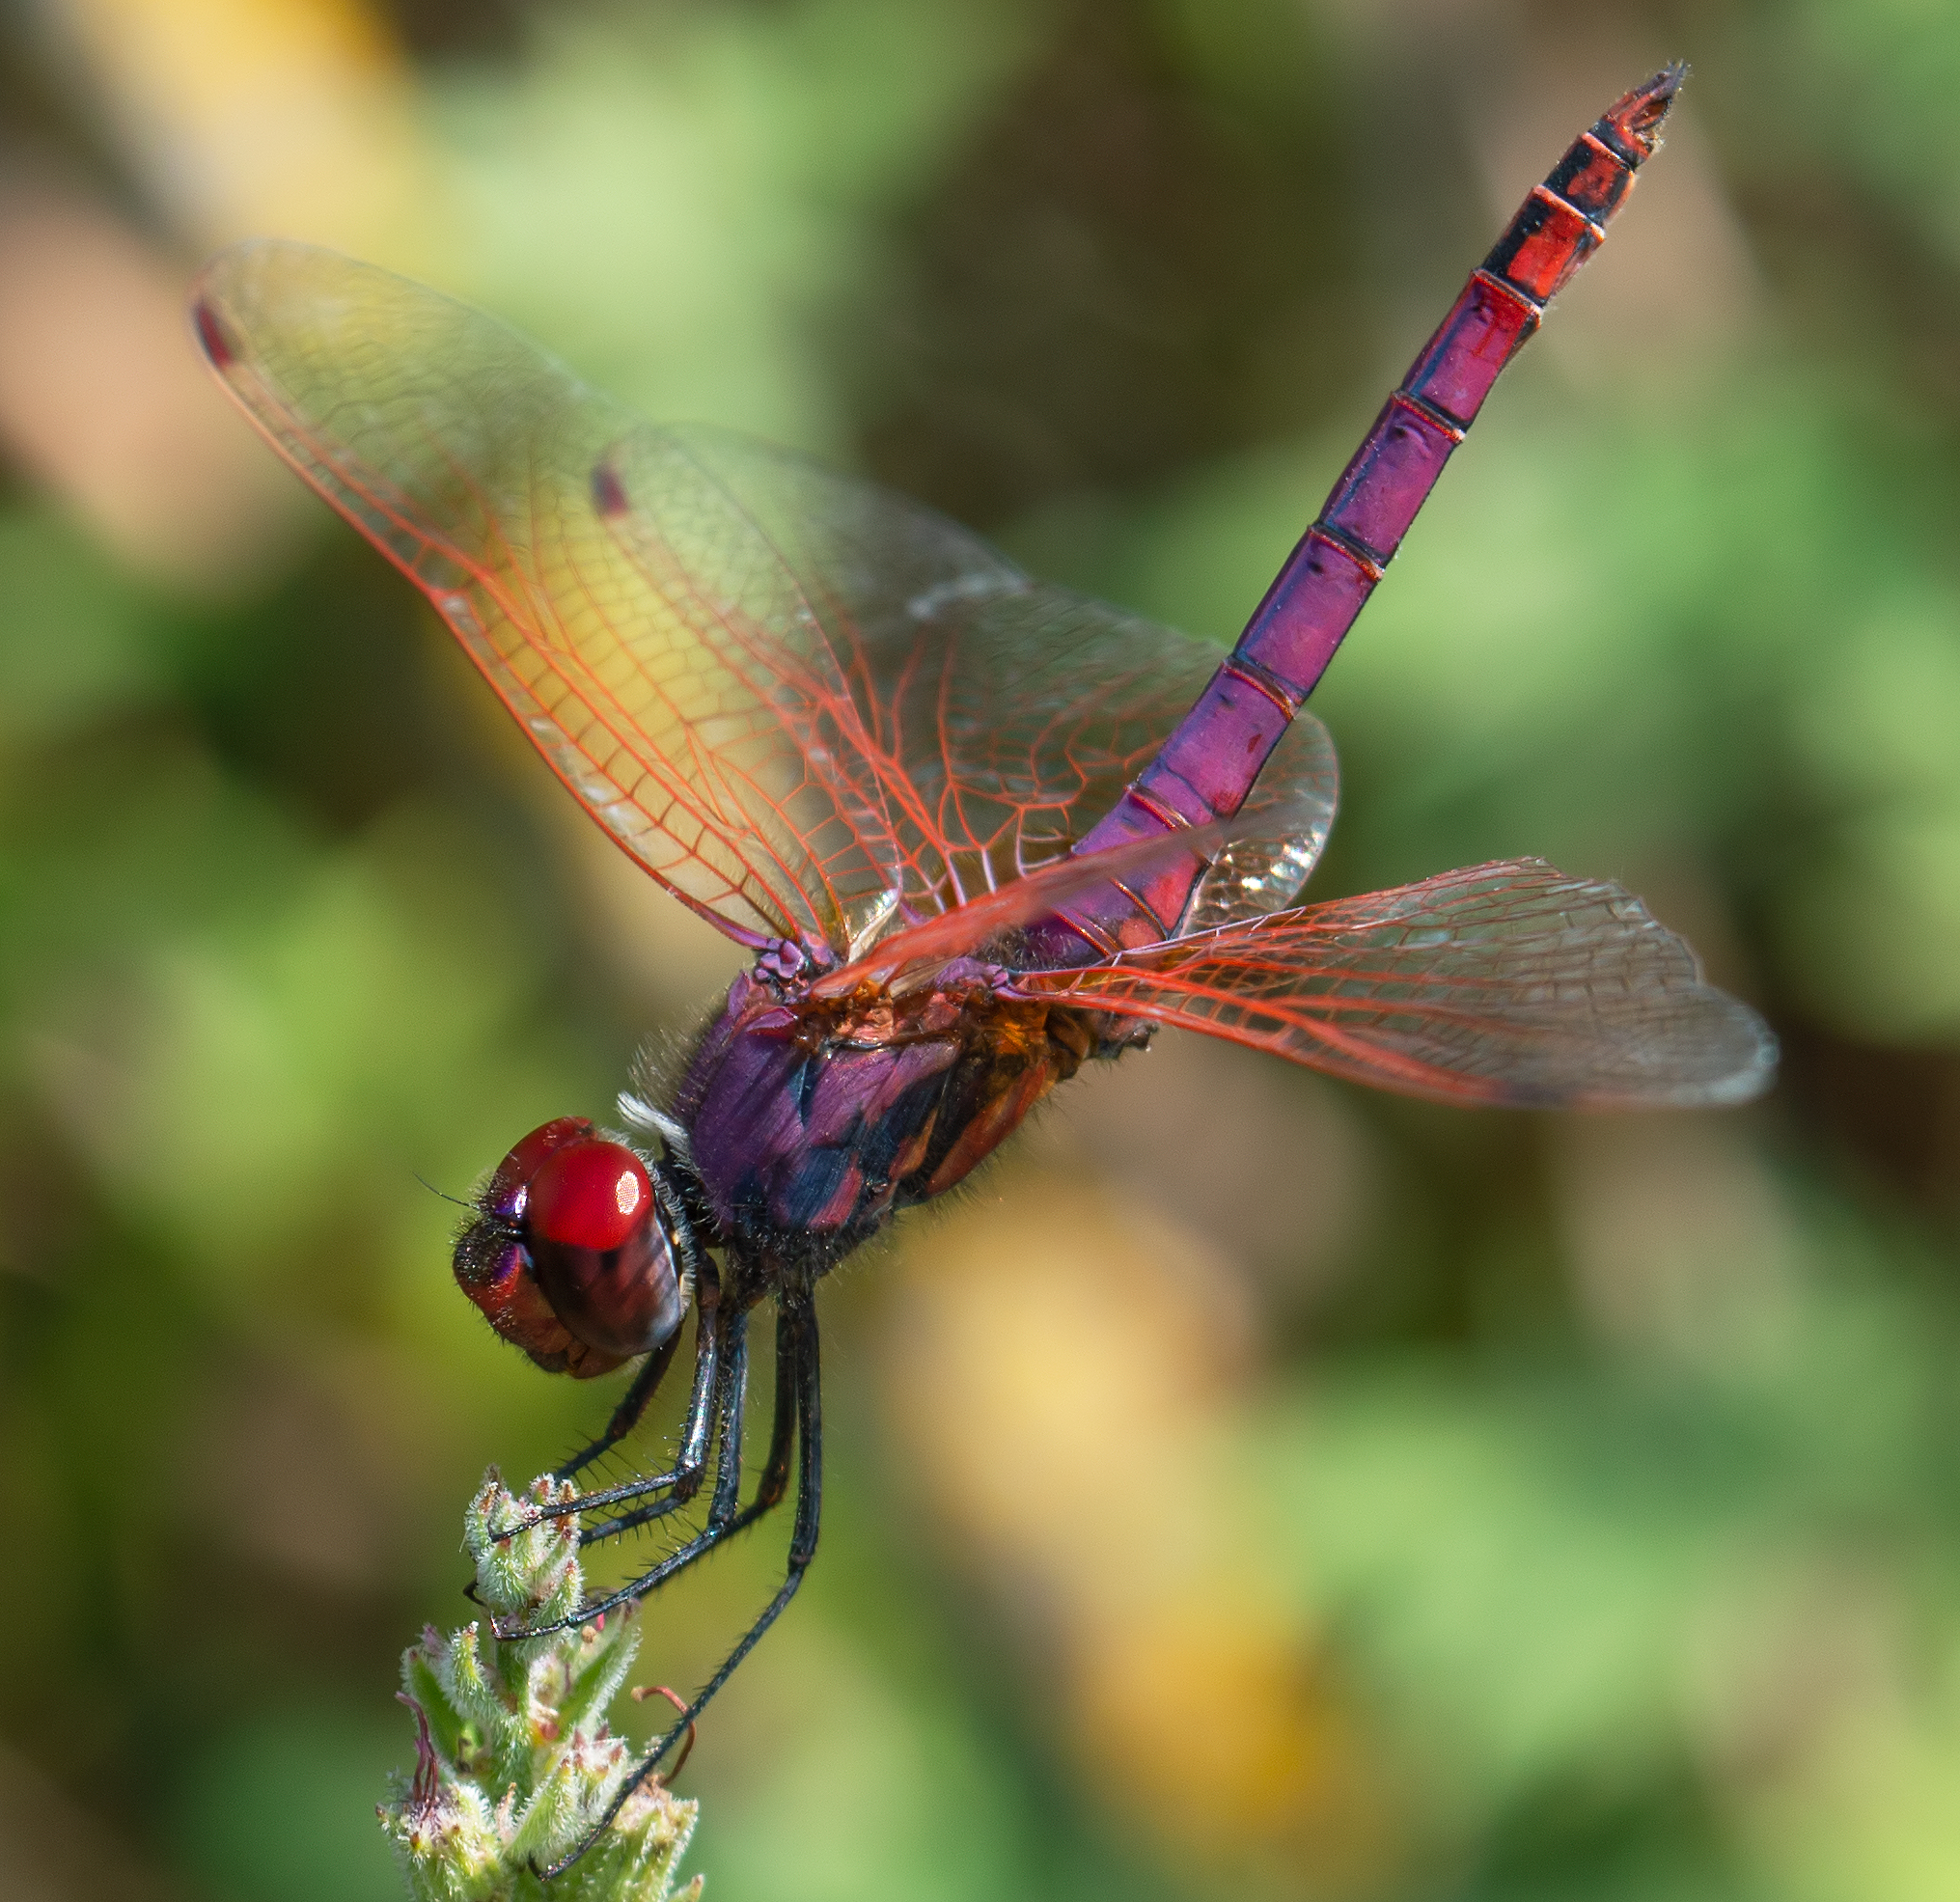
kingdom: Animalia
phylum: Arthropoda
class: Insecta
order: Odonata
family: Libellulidae
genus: Trithemis
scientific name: Trithemis annulata
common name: Violet dropwing
